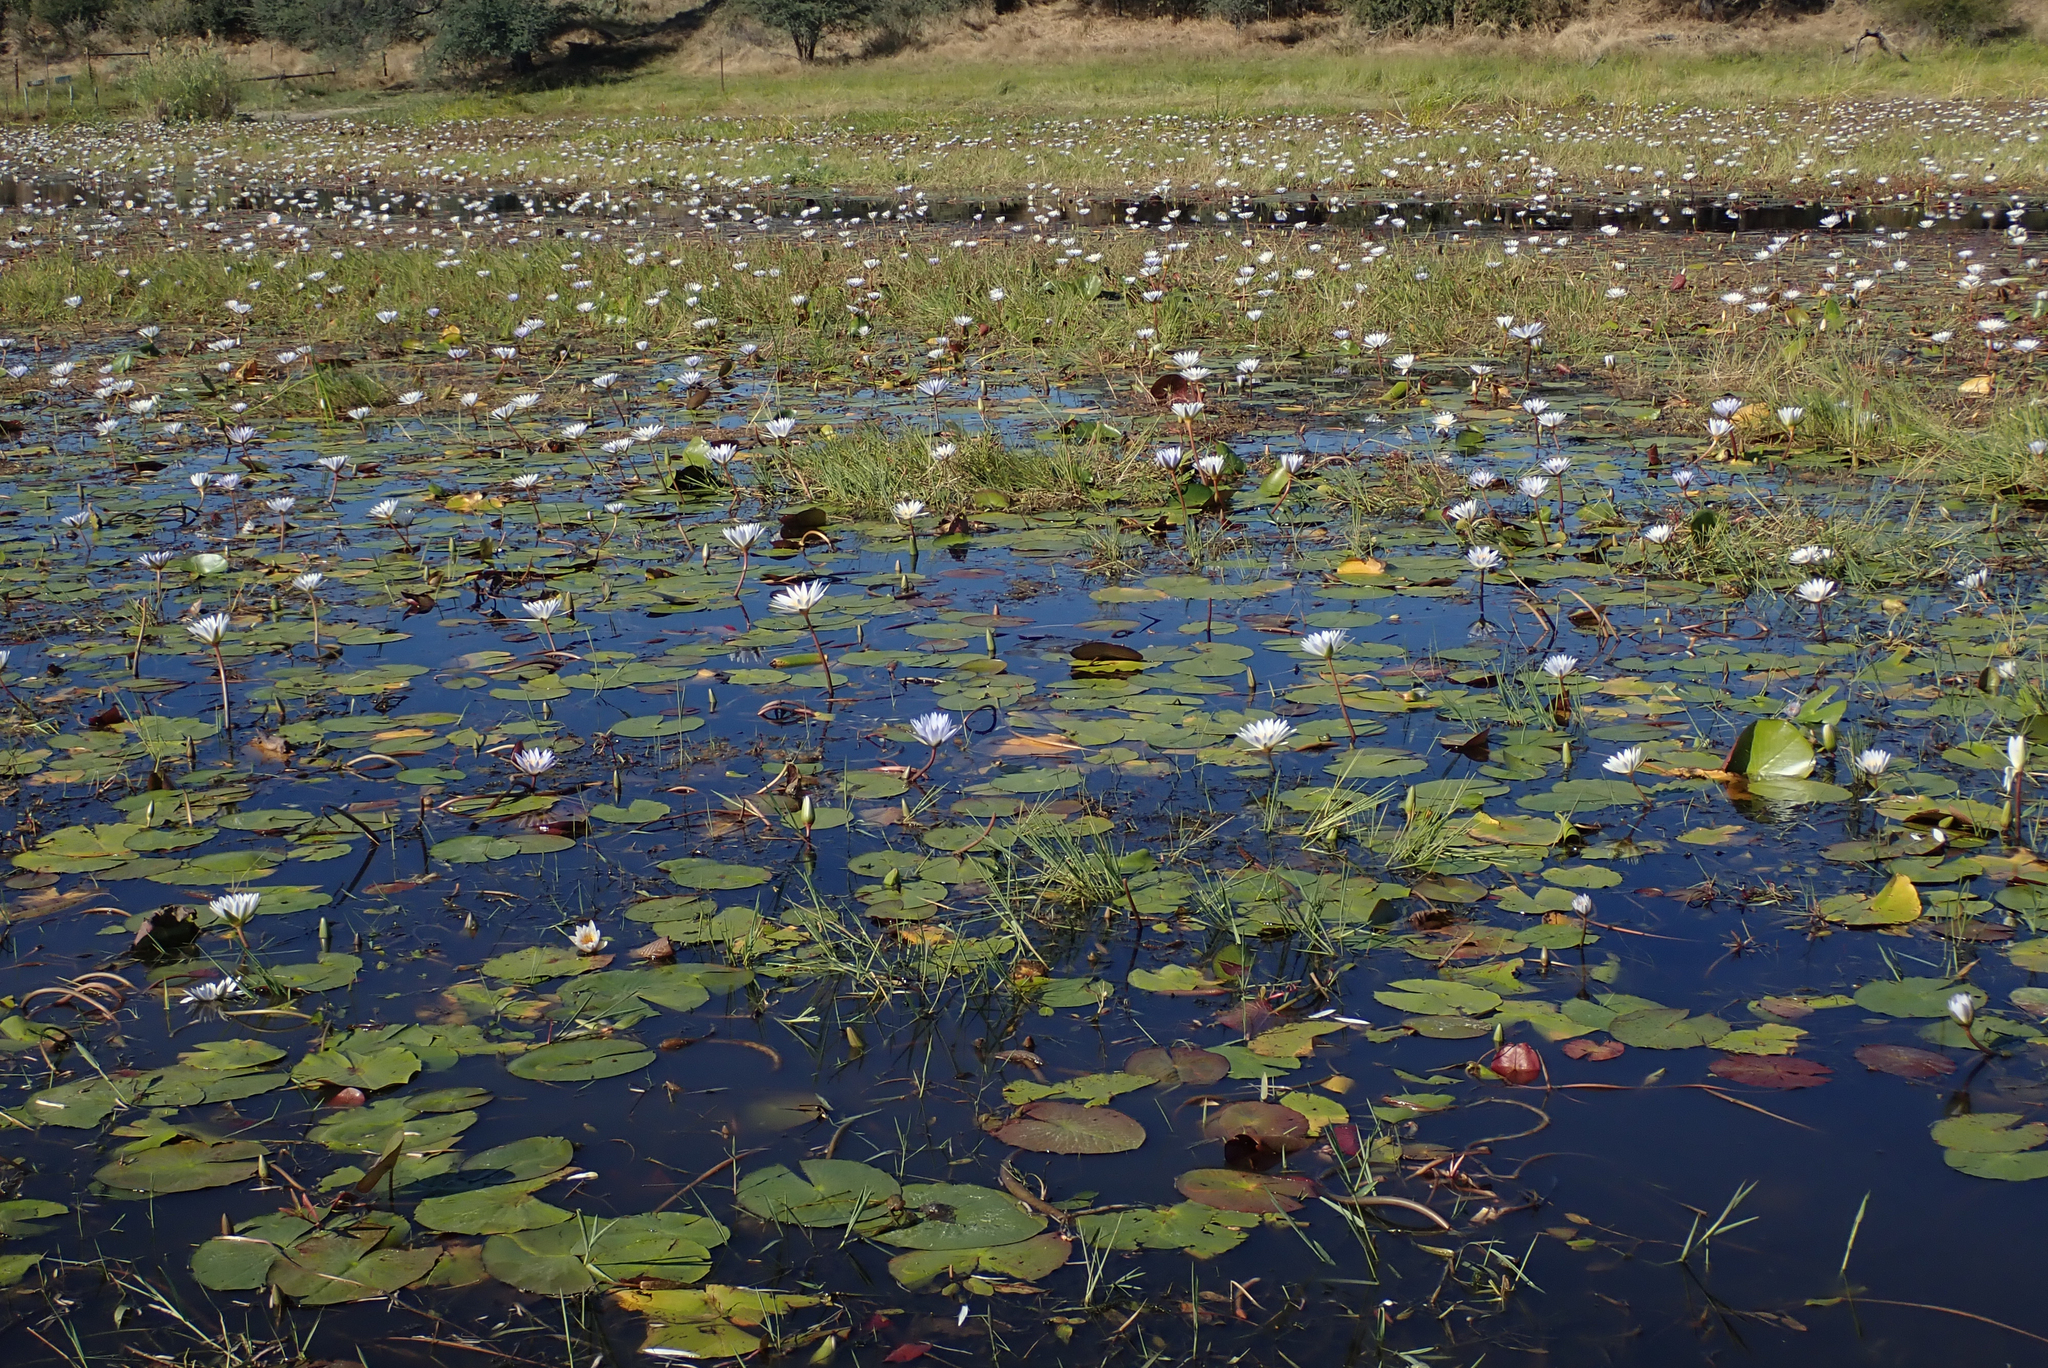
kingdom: Plantae
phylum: Tracheophyta
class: Magnoliopsida
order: Nymphaeales
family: Nymphaeaceae
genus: Nymphaea
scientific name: Nymphaea nouchali
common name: Blue lotus
